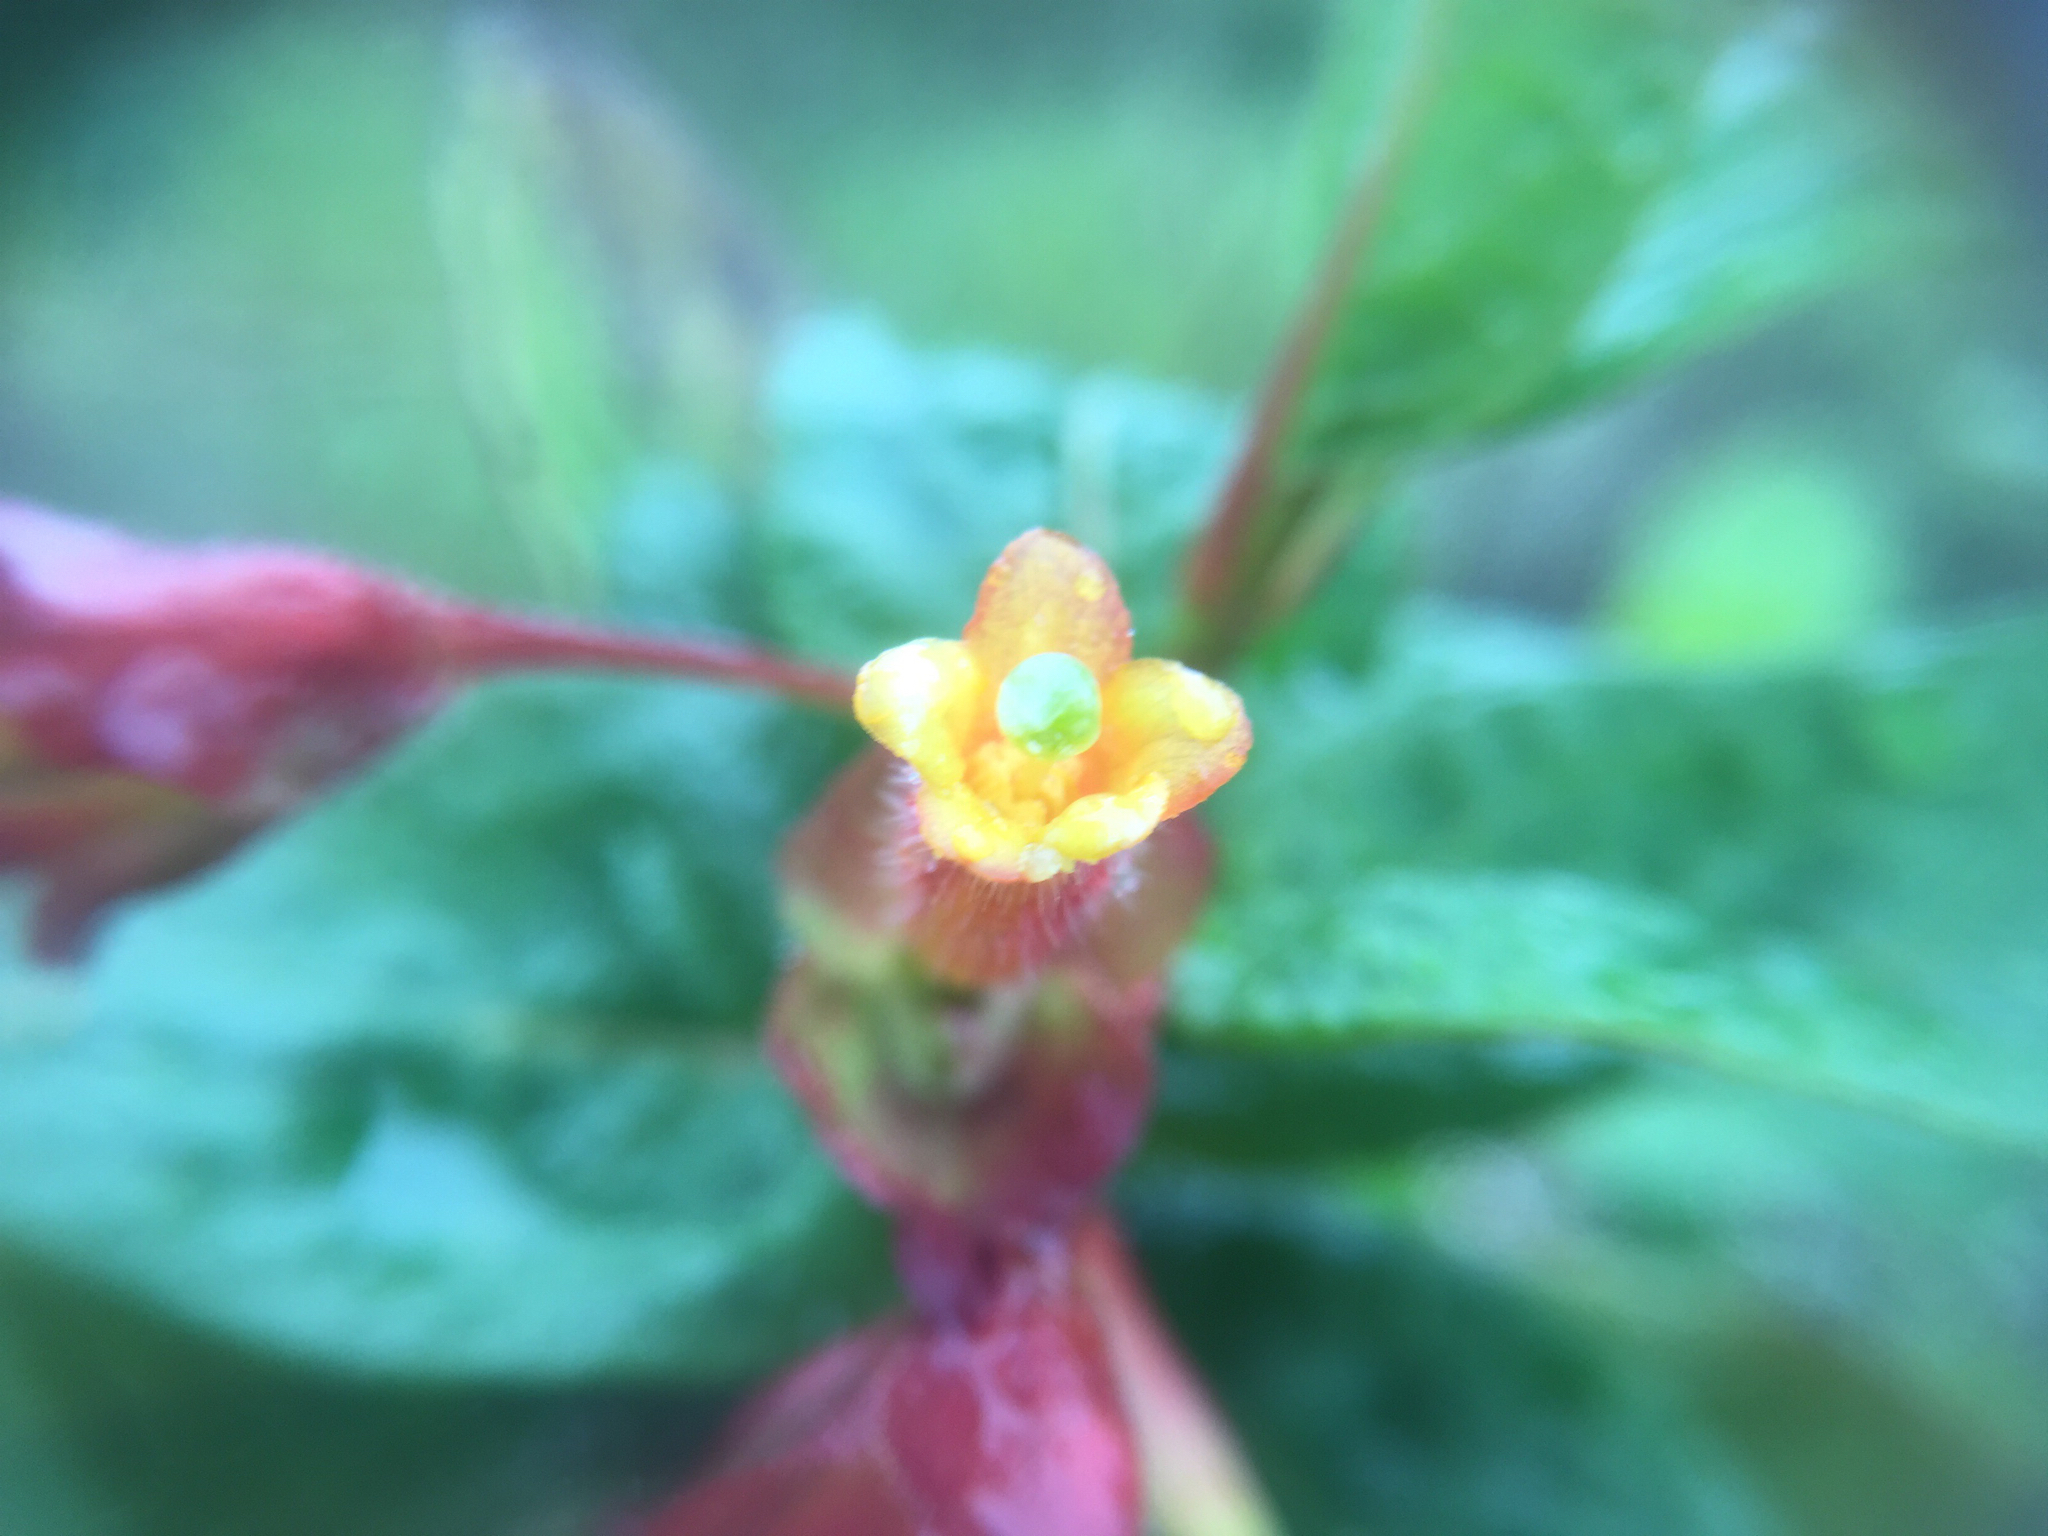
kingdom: Plantae
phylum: Tracheophyta
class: Magnoliopsida
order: Dipsacales
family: Caprifoliaceae
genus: Lonicera
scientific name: Lonicera involucrata
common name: Californian honeysuckle
